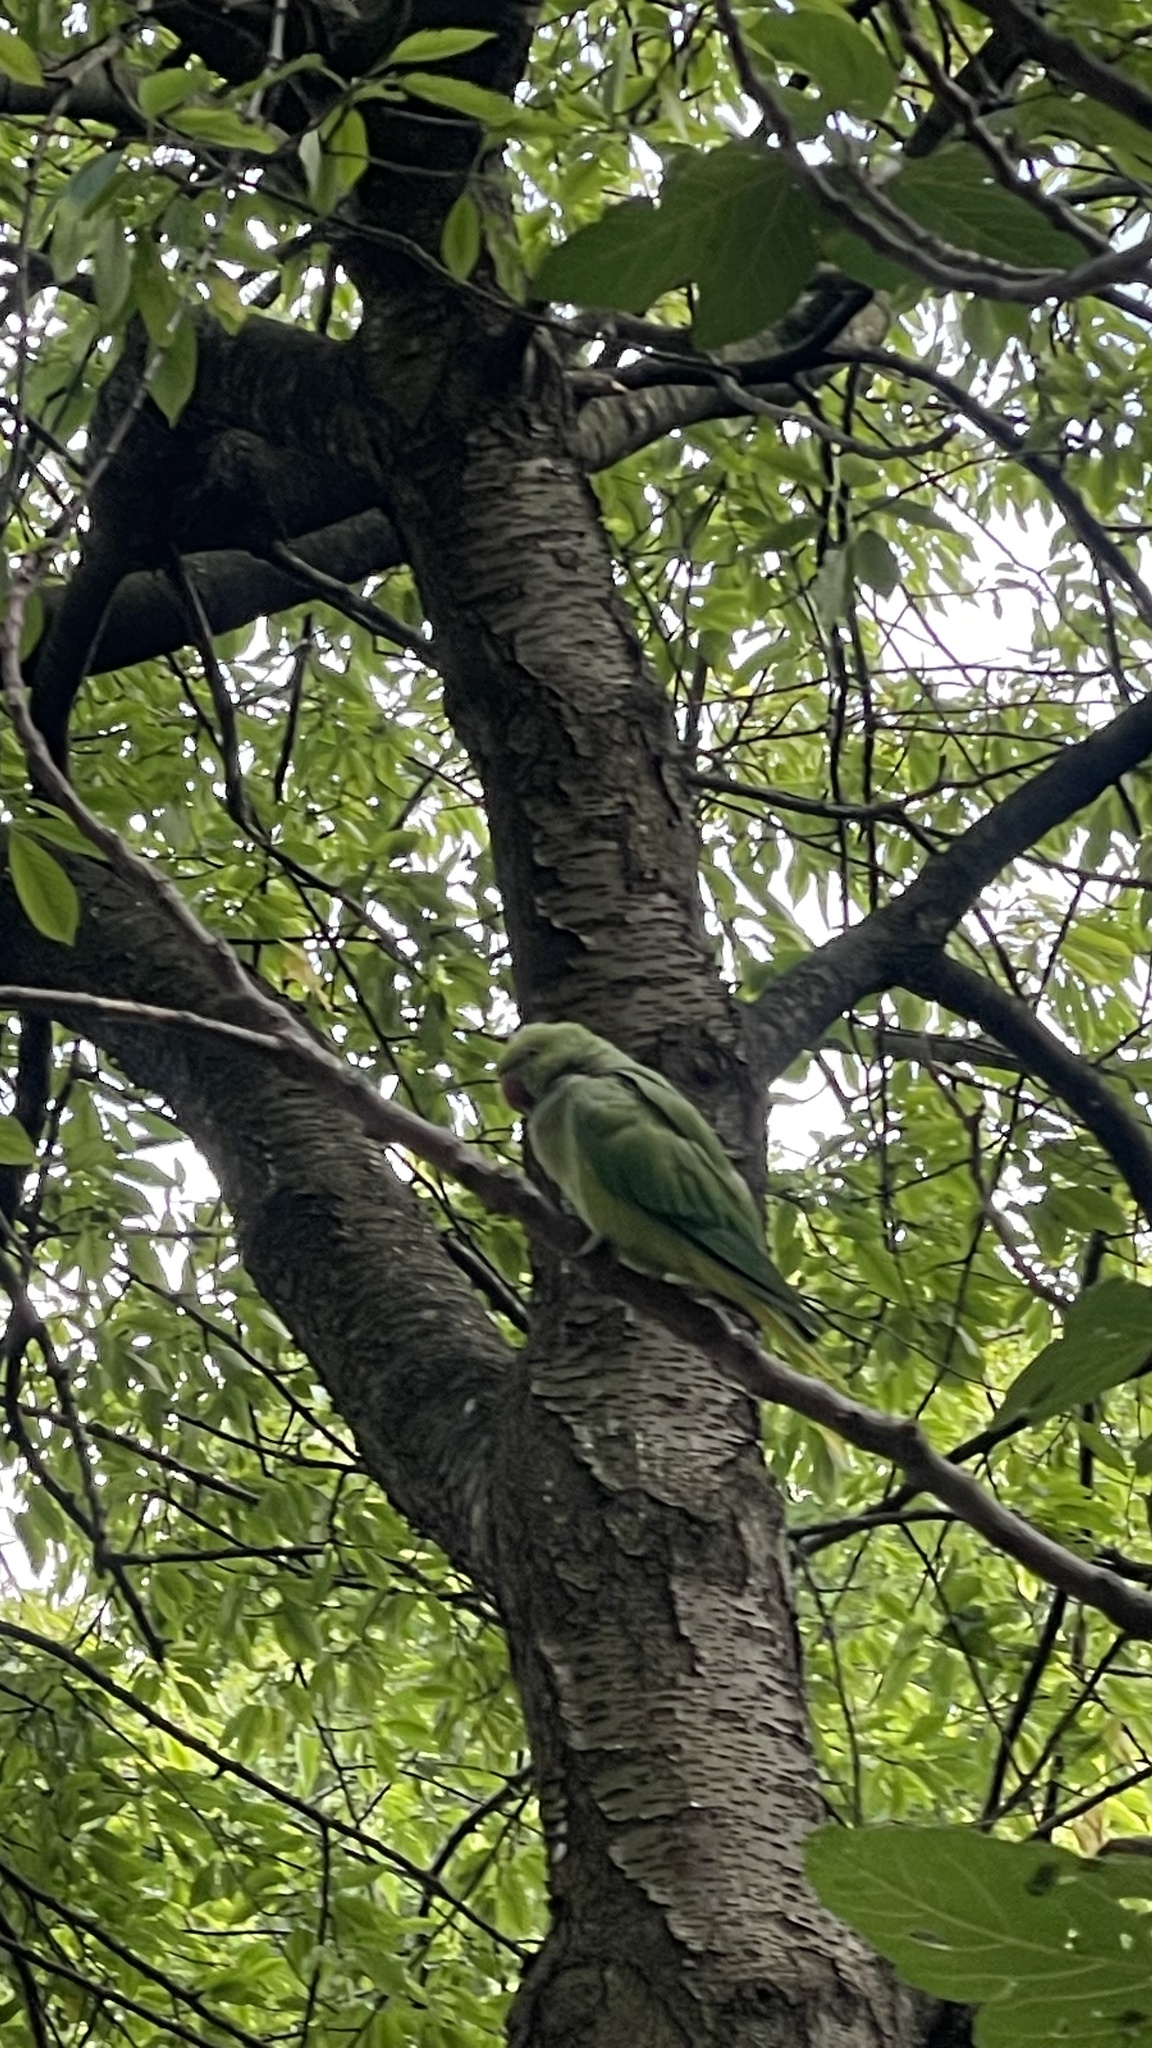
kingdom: Animalia
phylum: Chordata
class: Aves
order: Psittaciformes
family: Psittacidae
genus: Psittacula
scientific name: Psittacula krameri
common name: Rose-ringed parakeet
